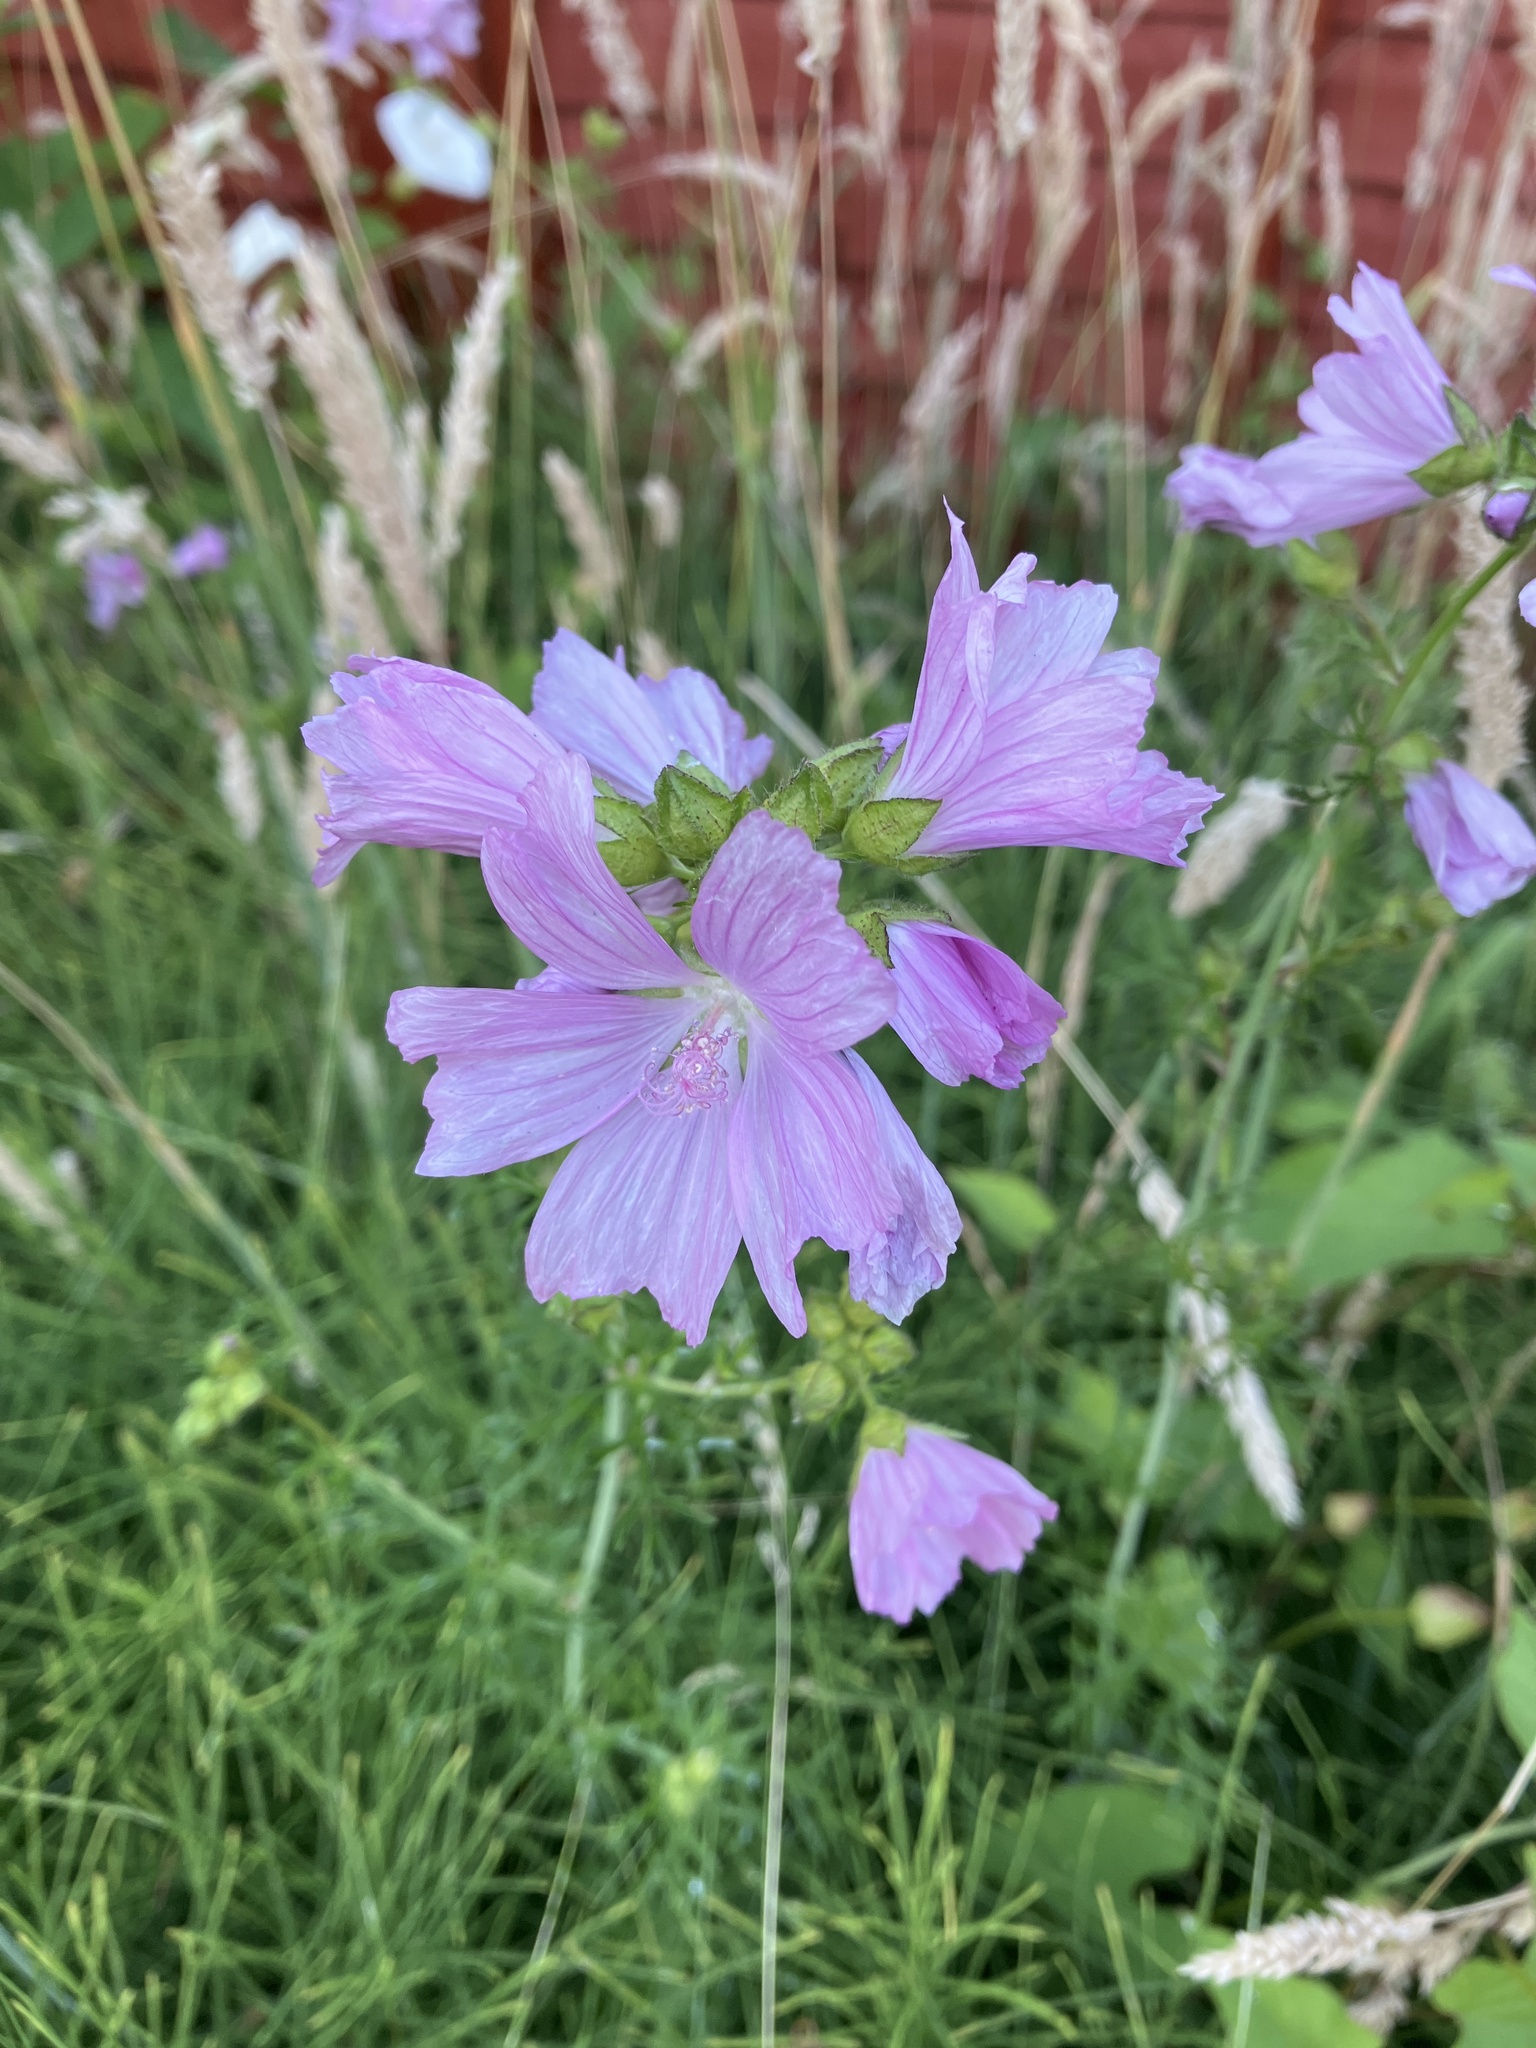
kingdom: Plantae
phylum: Tracheophyta
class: Magnoliopsida
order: Malvales
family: Malvaceae
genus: Malva
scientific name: Malva moschata
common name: Musk mallow
